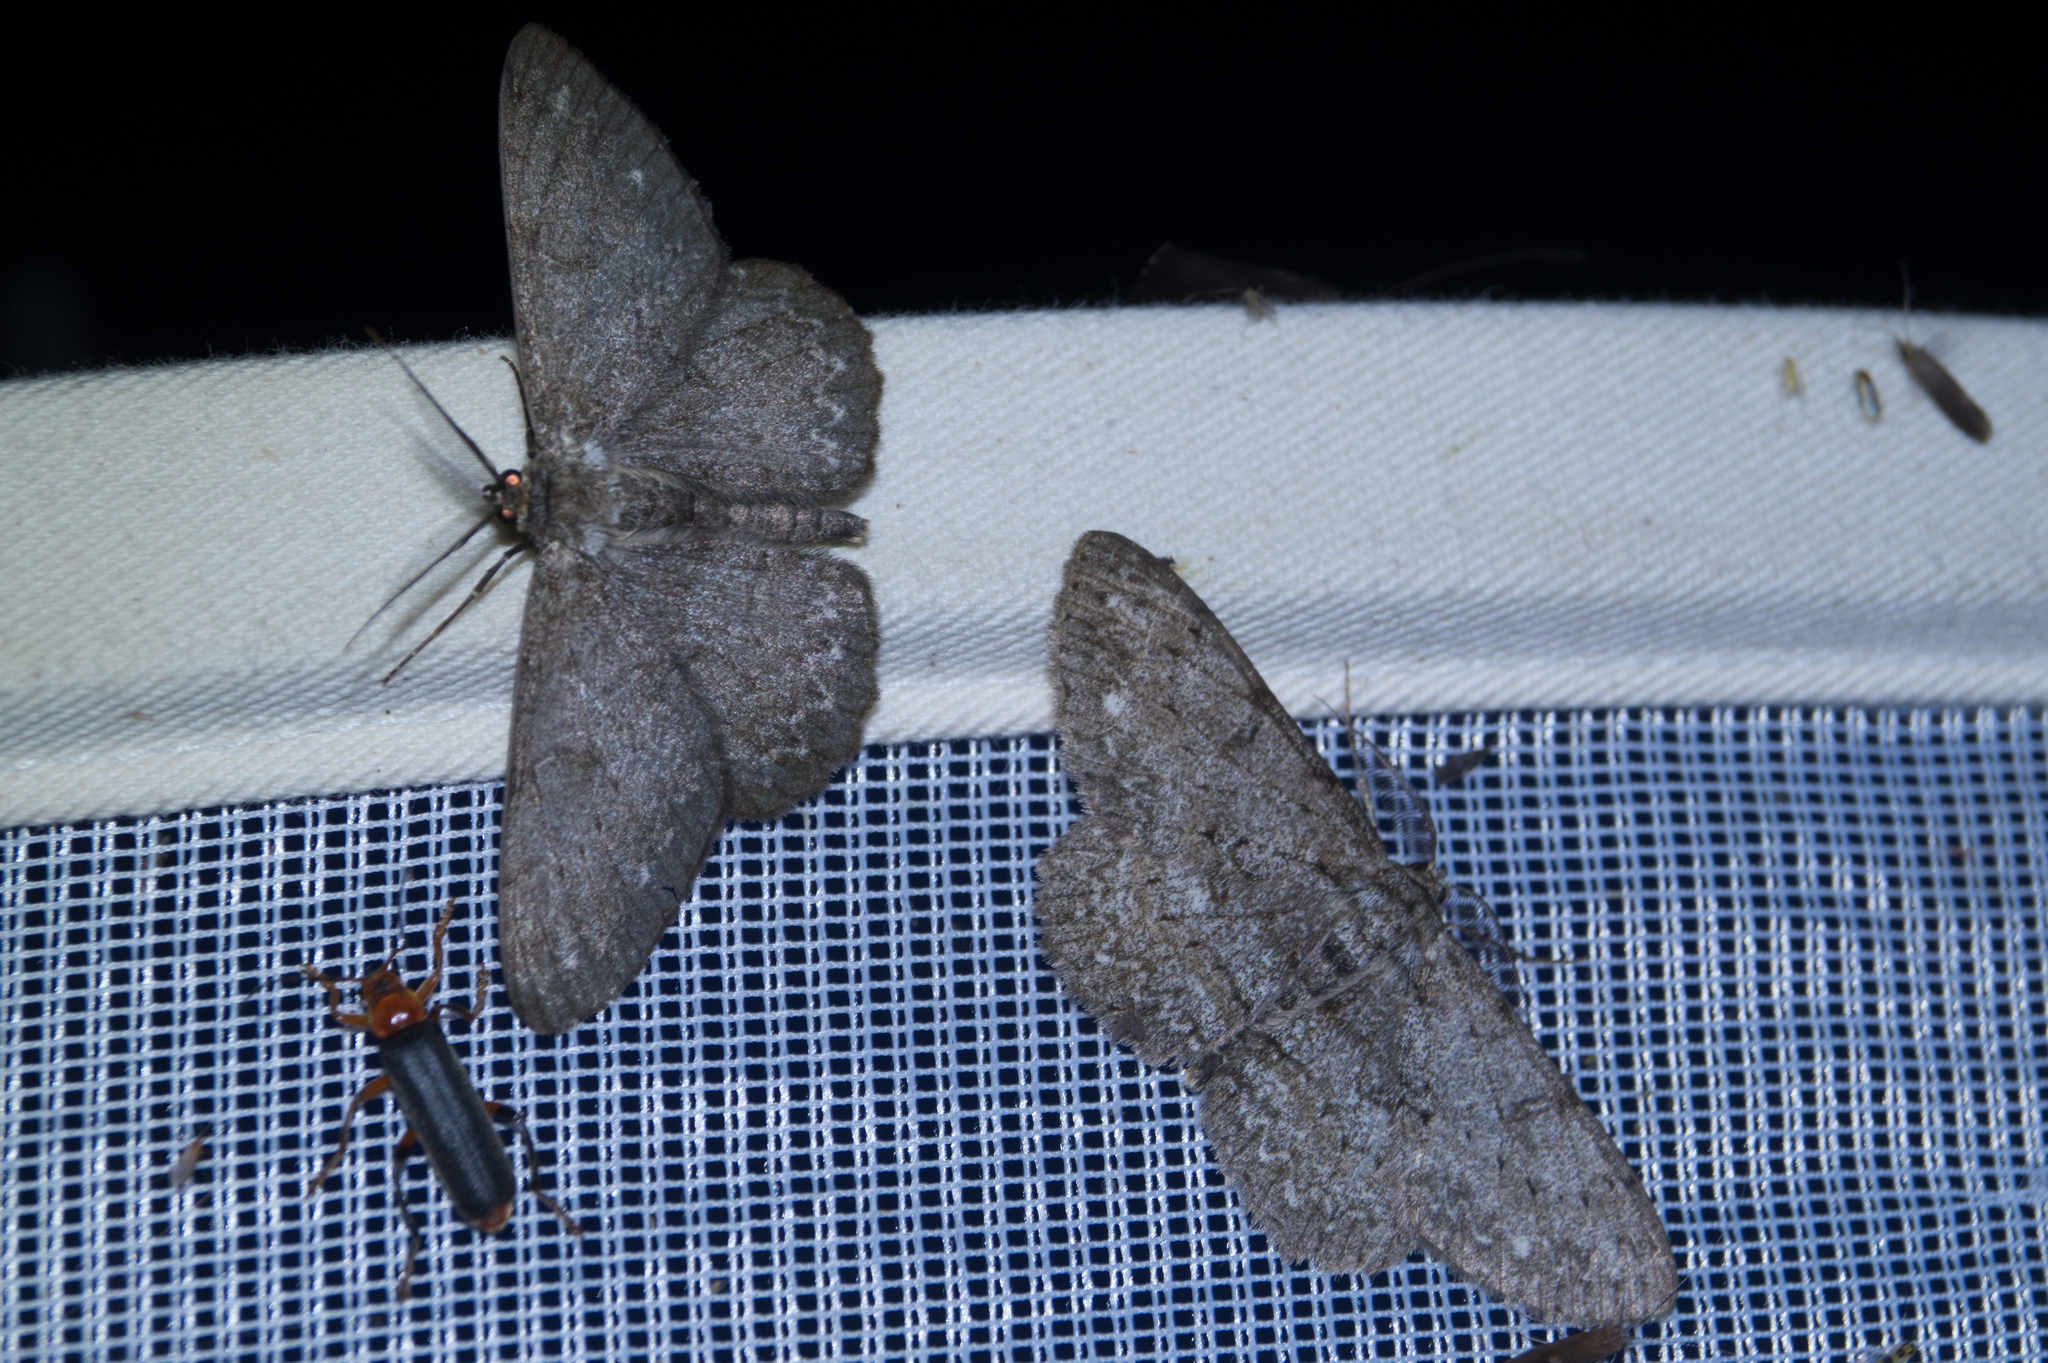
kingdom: Animalia
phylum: Arthropoda
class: Insecta
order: Lepidoptera
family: Geometridae
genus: Hypomecis
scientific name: Hypomecis punctinalis
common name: Pale oak beauty
